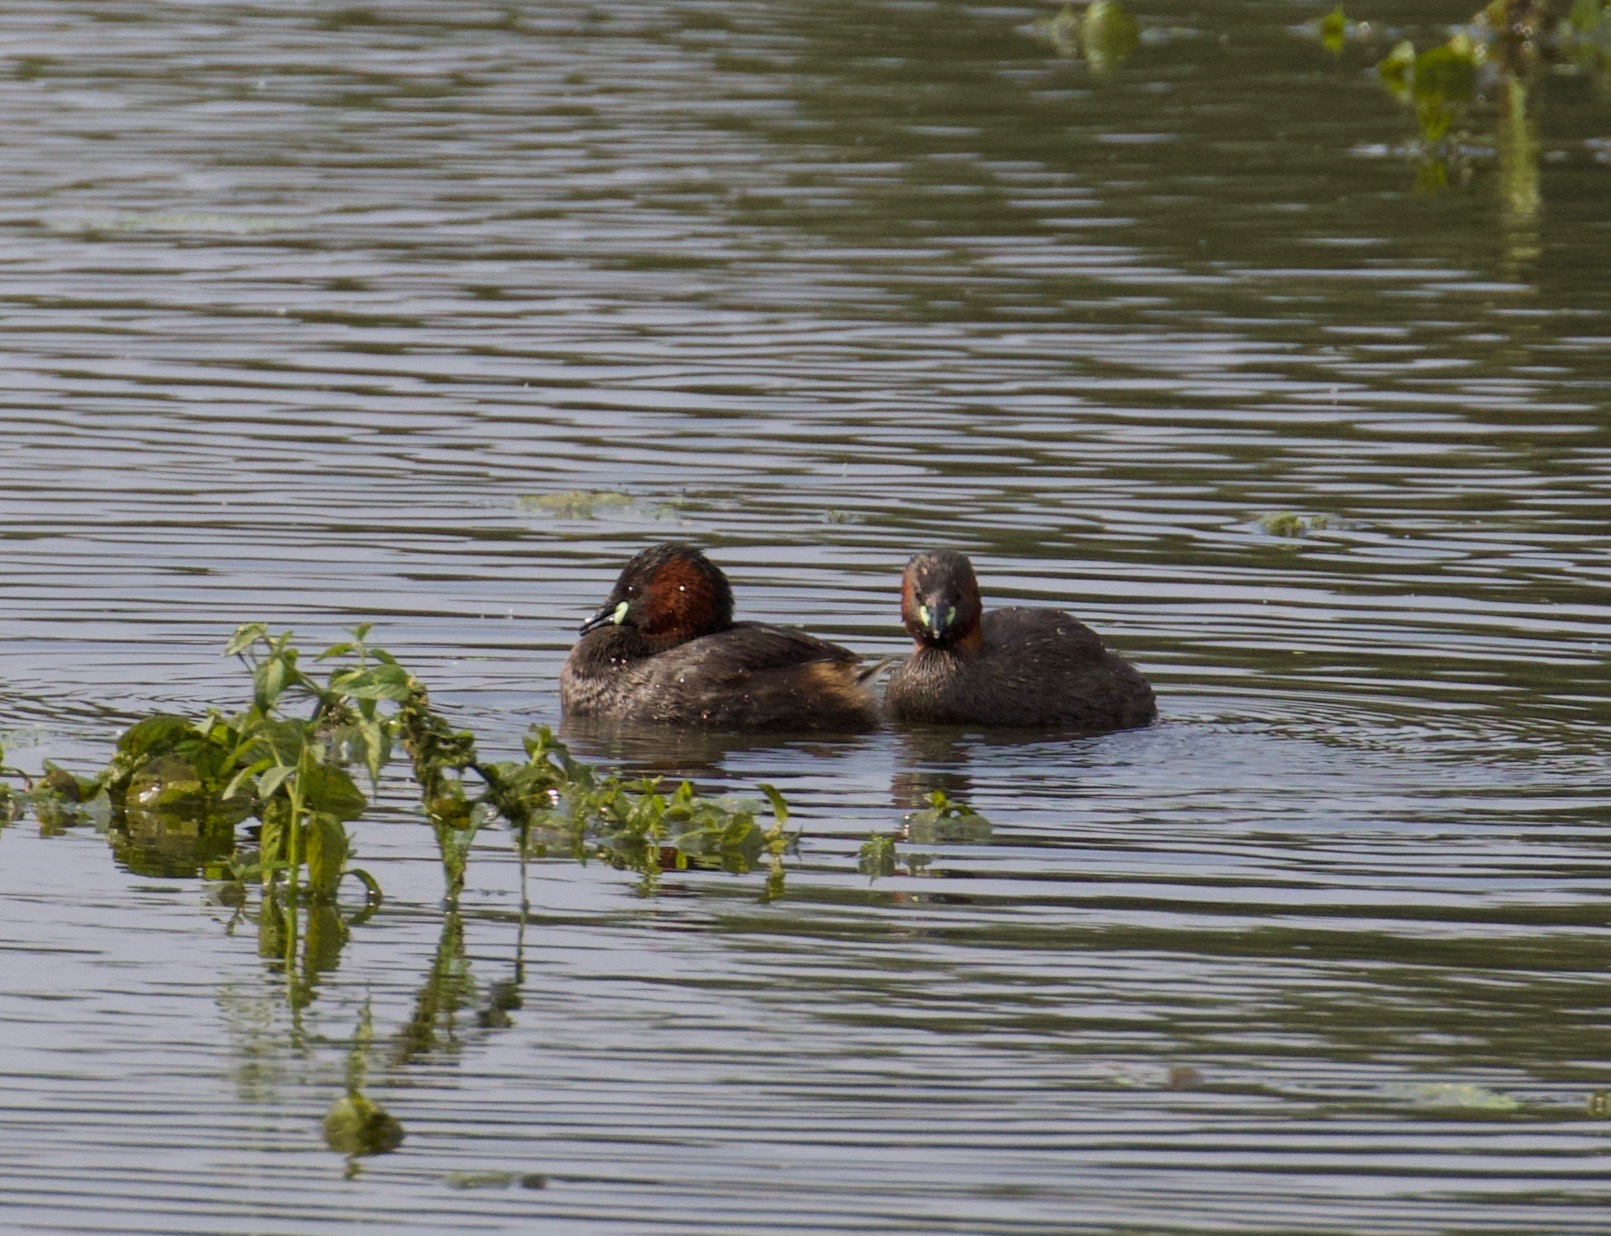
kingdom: Animalia
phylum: Chordata
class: Aves
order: Podicipediformes
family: Podicipedidae
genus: Tachybaptus
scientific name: Tachybaptus ruficollis
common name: Little grebe
